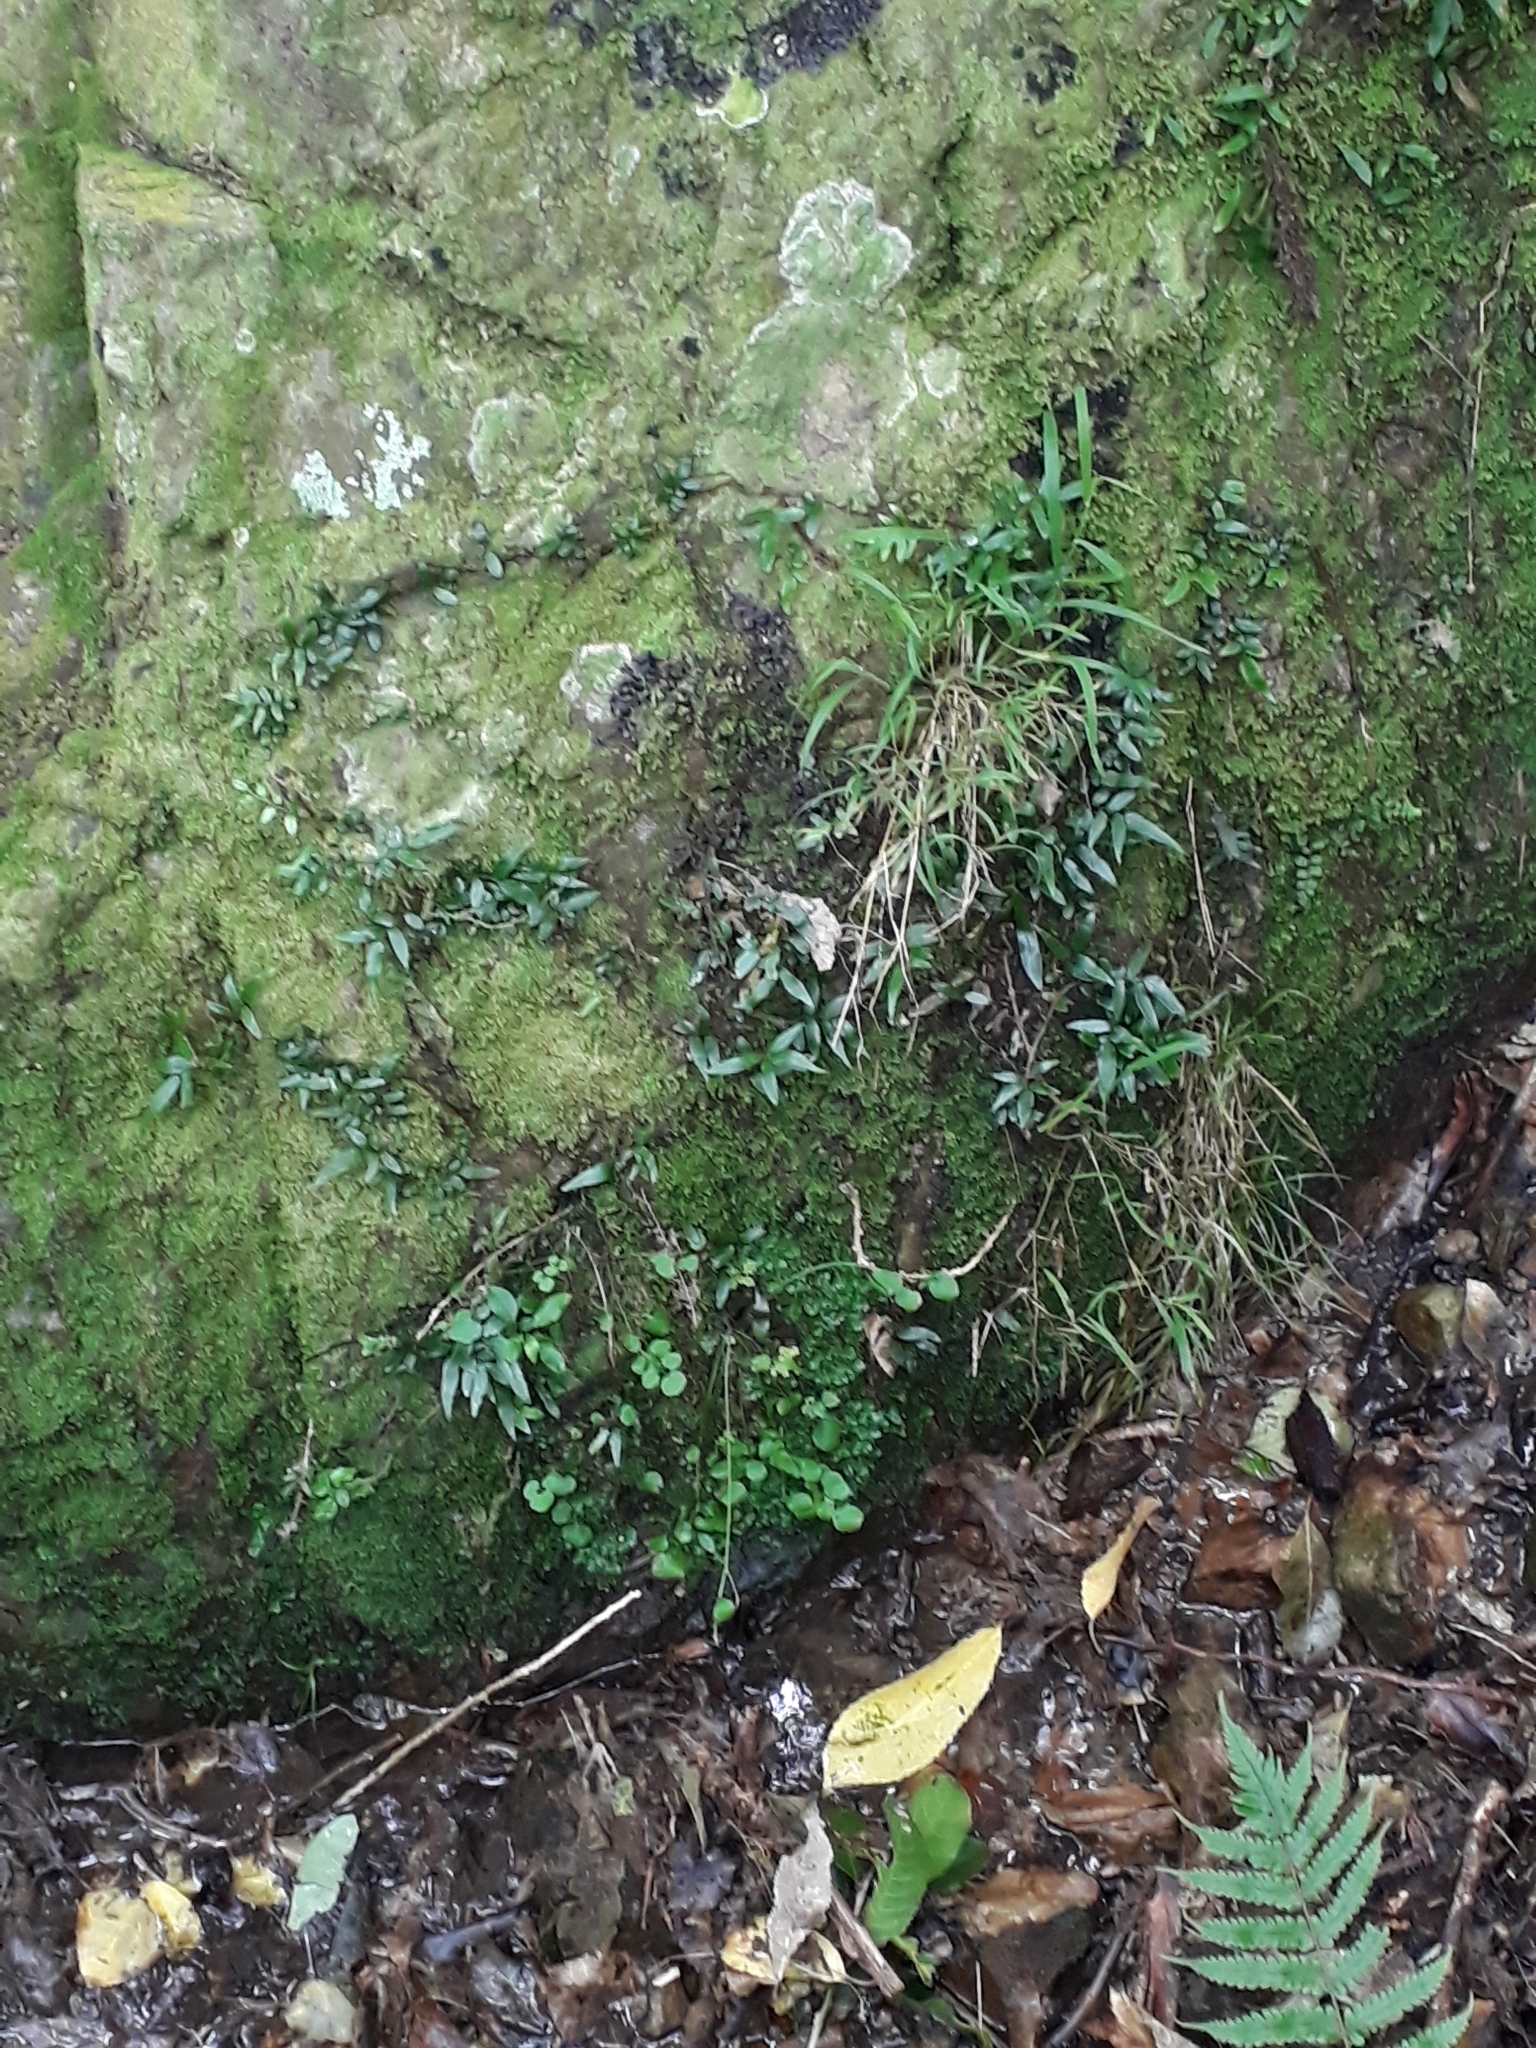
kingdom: Plantae
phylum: Tracheophyta
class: Polypodiopsida
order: Polypodiales
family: Tectariaceae
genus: Arthropteris
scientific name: Arthropteris tenella
